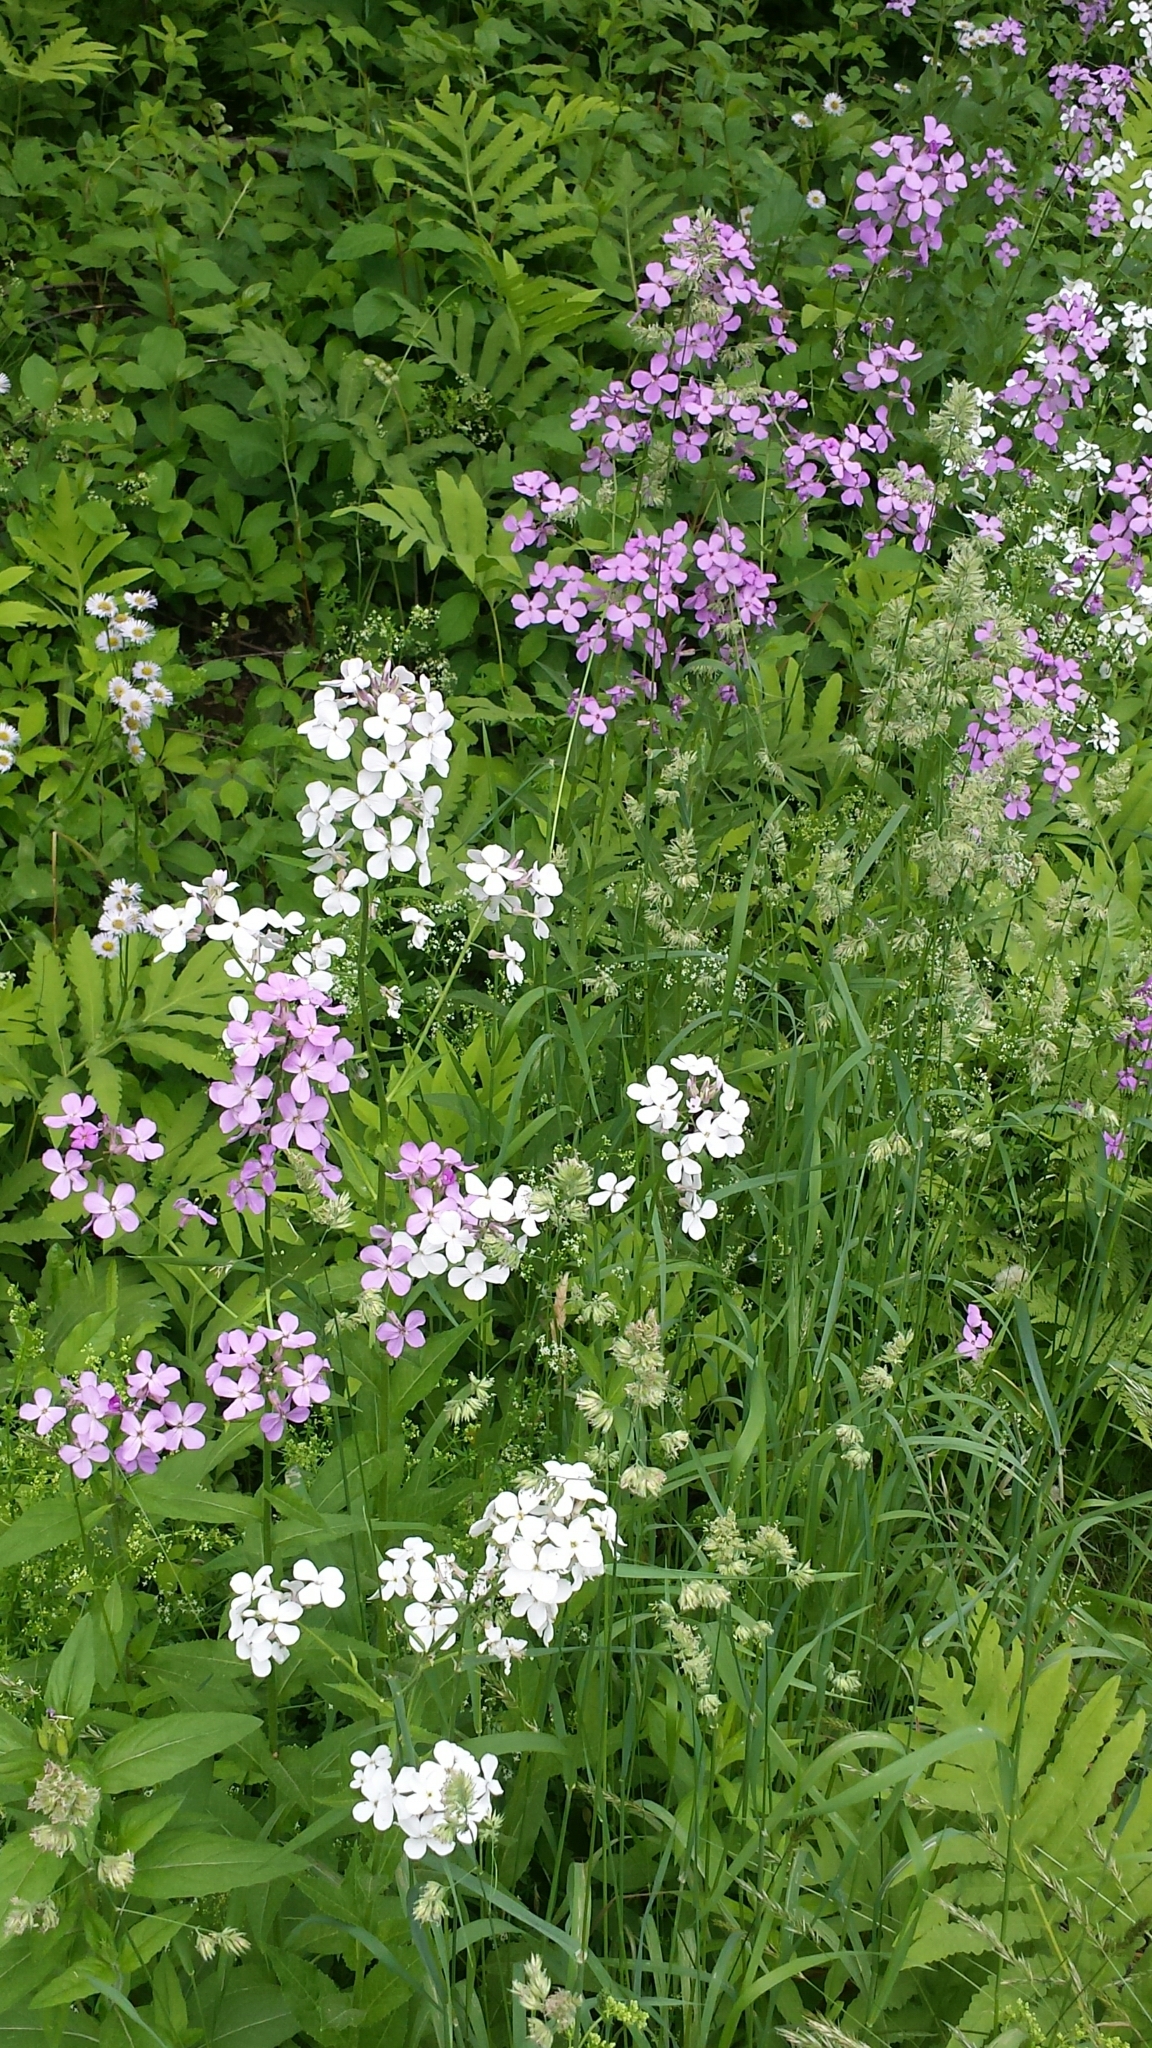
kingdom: Plantae
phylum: Tracheophyta
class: Magnoliopsida
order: Brassicales
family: Brassicaceae
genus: Hesperis
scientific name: Hesperis matronalis
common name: Dame's-violet
